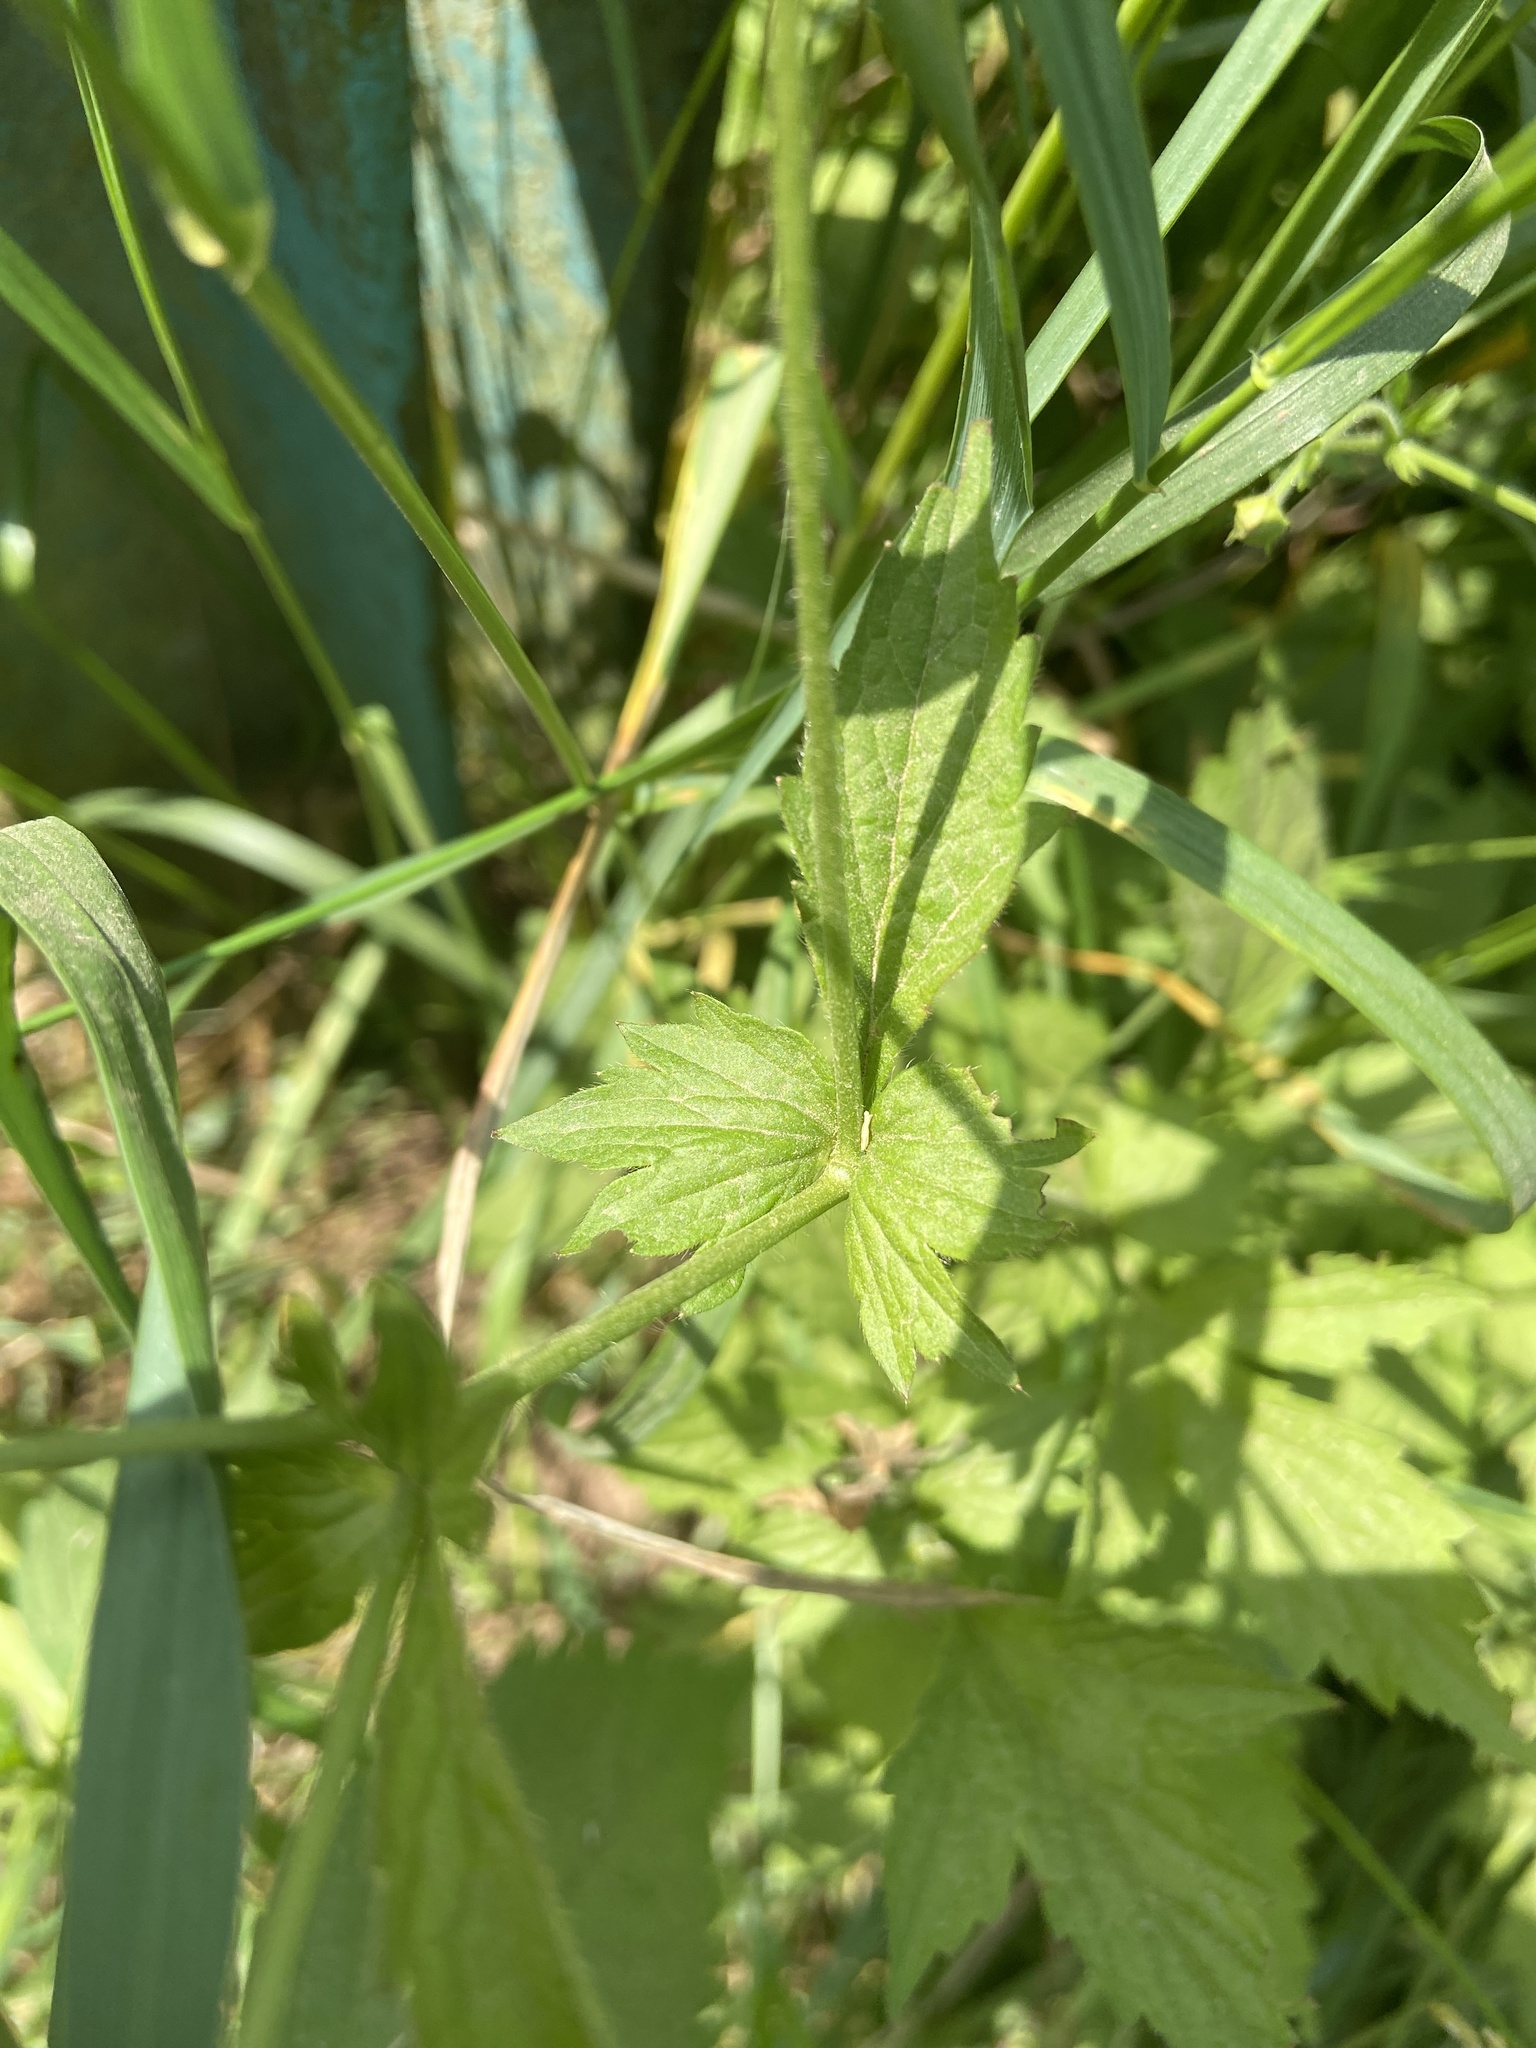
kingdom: Plantae
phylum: Tracheophyta
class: Magnoliopsida
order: Rosales
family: Rosaceae
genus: Geum
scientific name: Geum urbanum
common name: Wood avens
